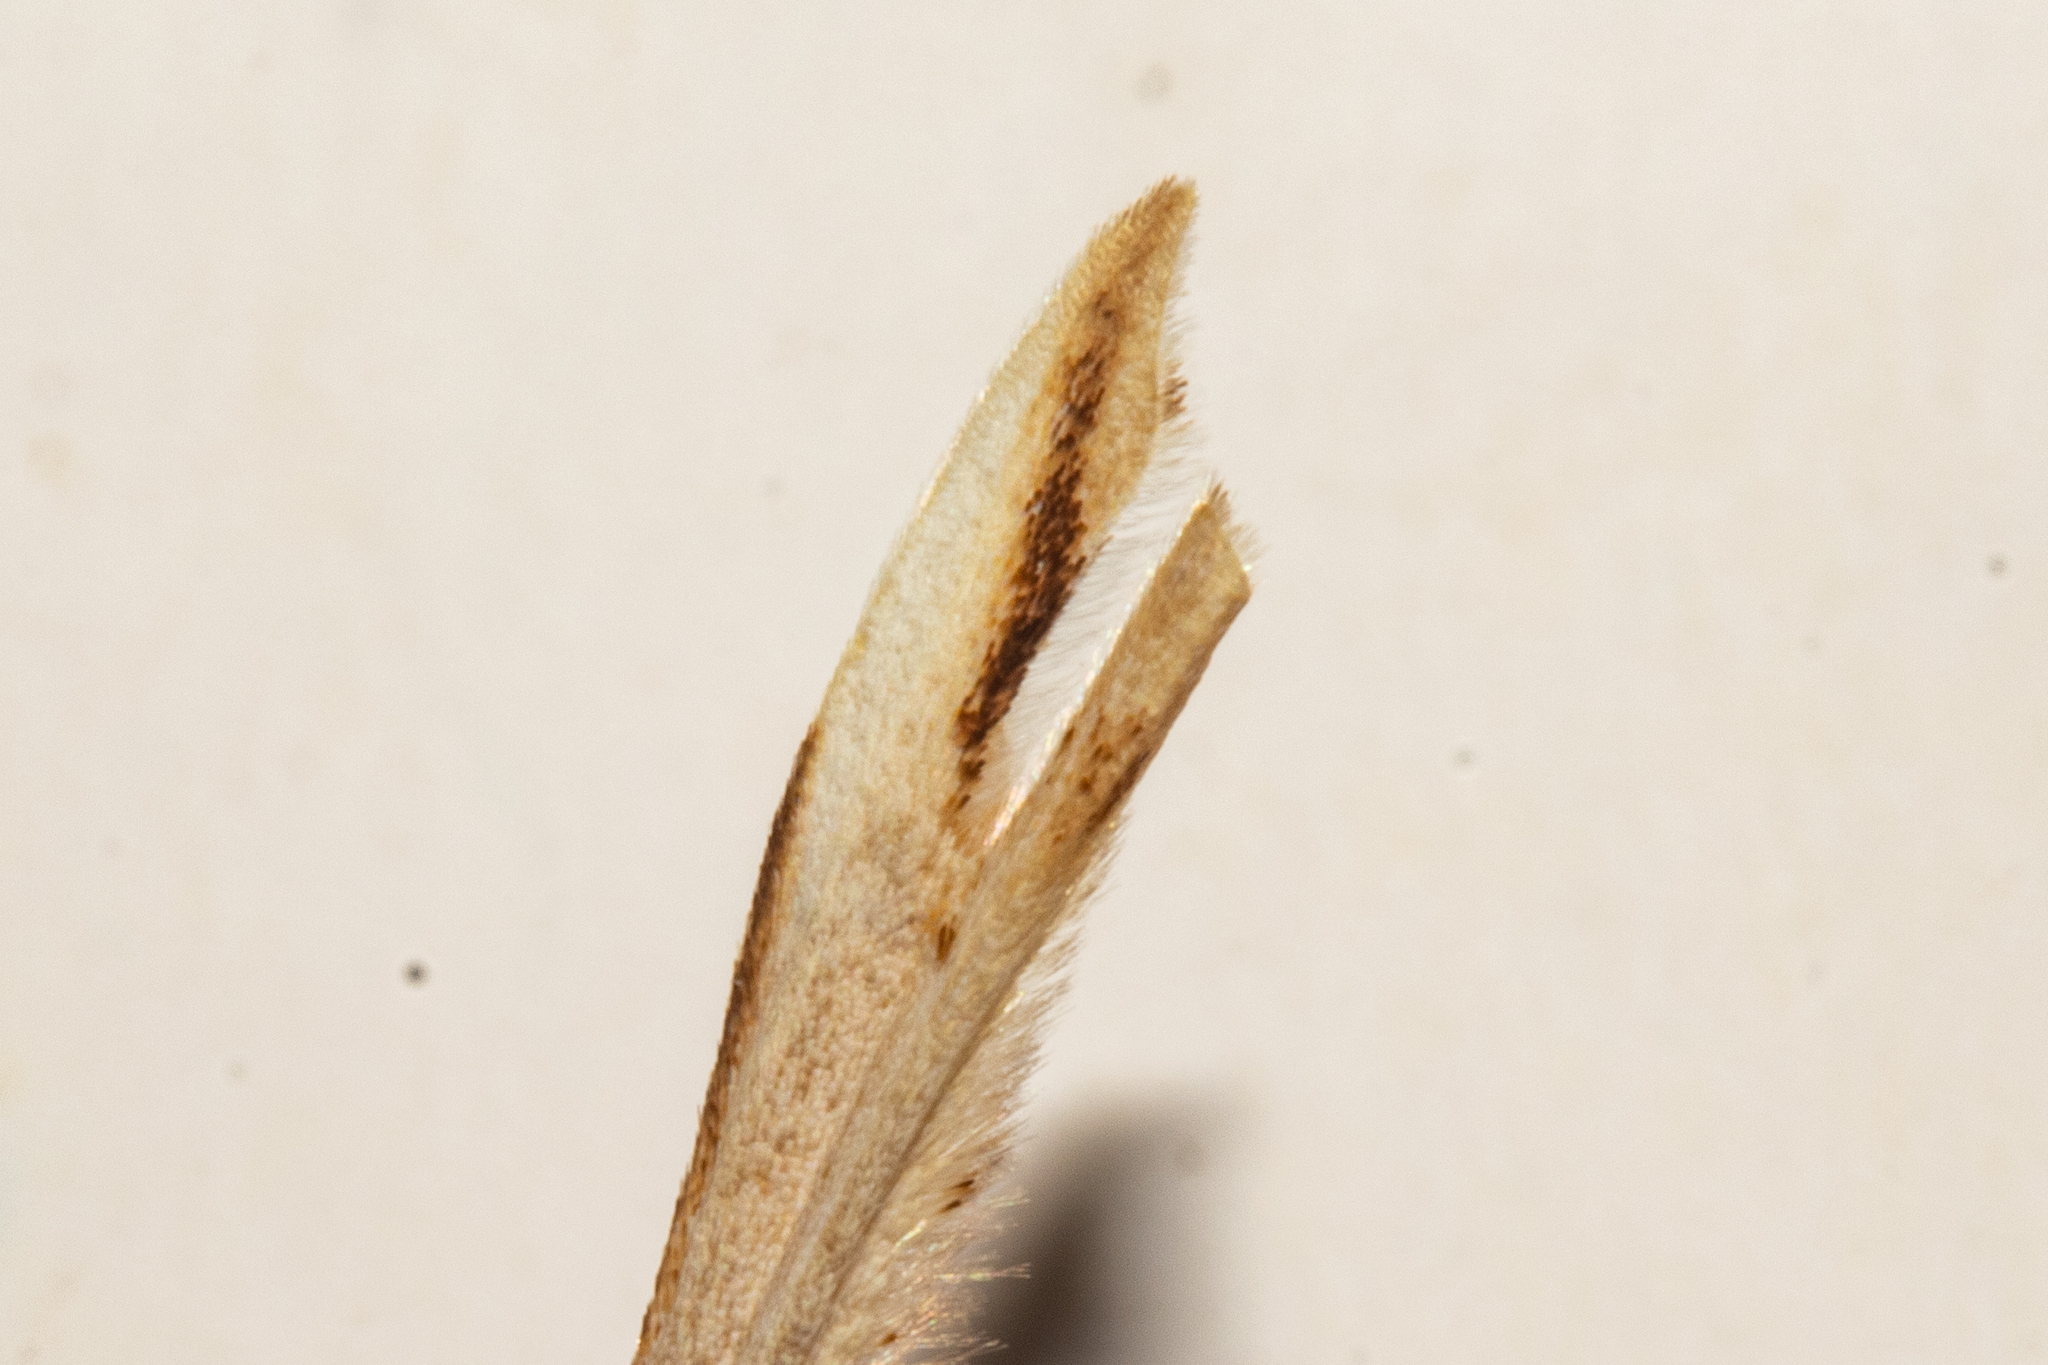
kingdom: Animalia
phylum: Arthropoda
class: Insecta
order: Lepidoptera
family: Pterophoridae
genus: Amblyptilia
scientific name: Amblyptilia epotis
